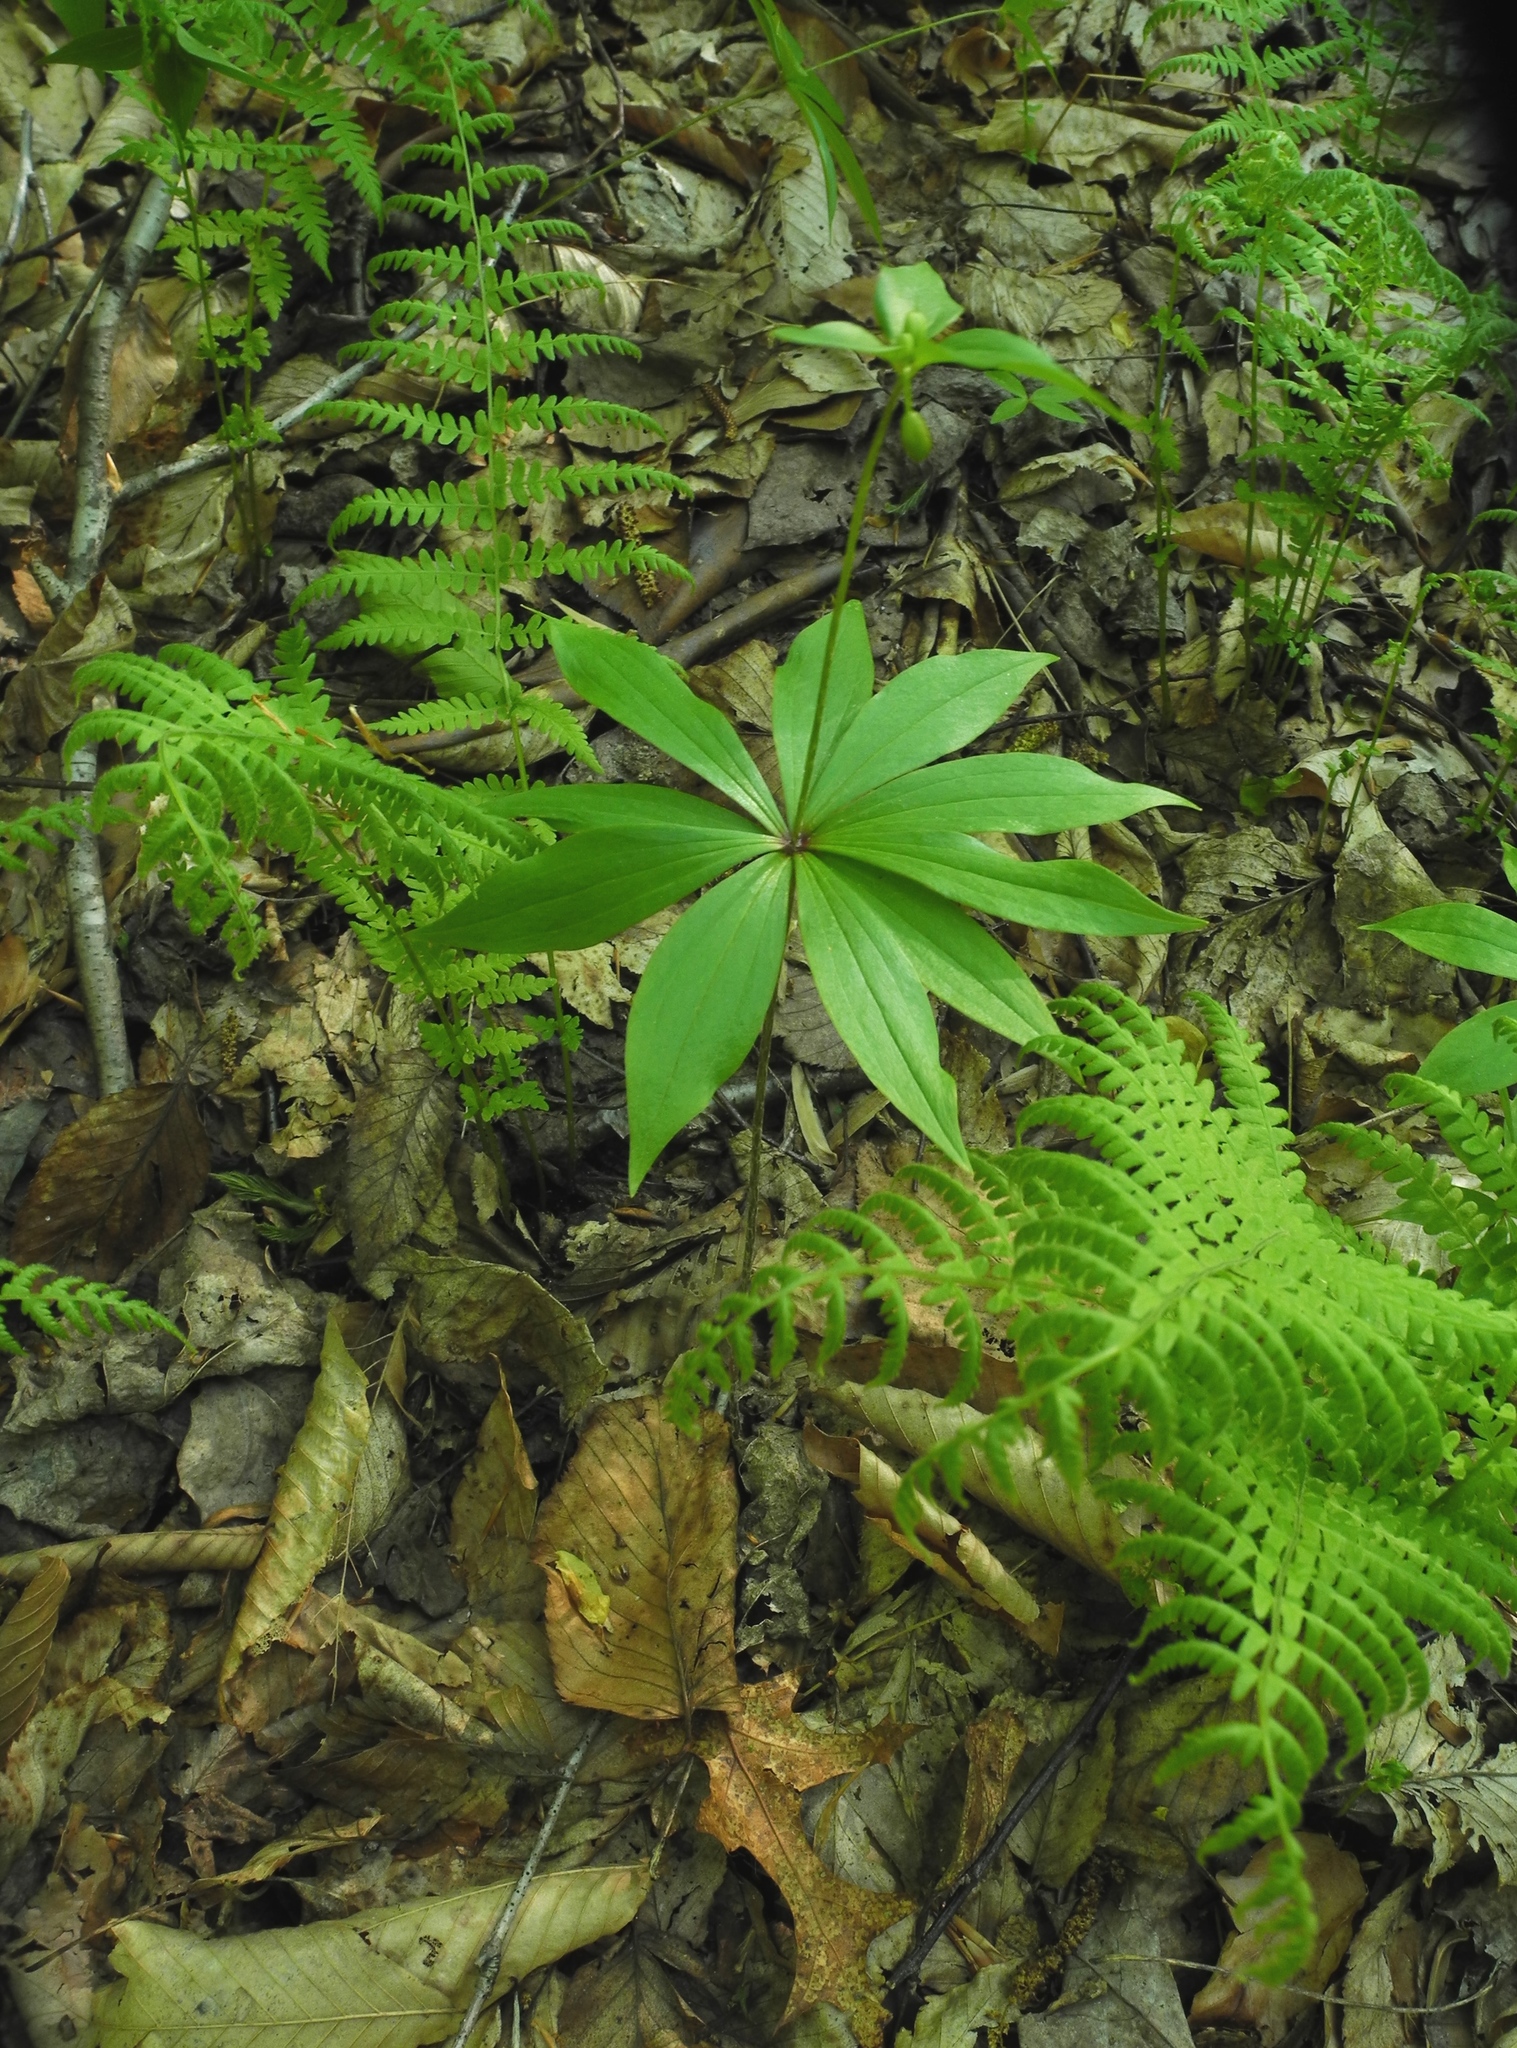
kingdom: Plantae
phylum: Tracheophyta
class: Liliopsida
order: Liliales
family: Liliaceae
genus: Medeola
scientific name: Medeola virginiana
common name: Indian cucumber-root
